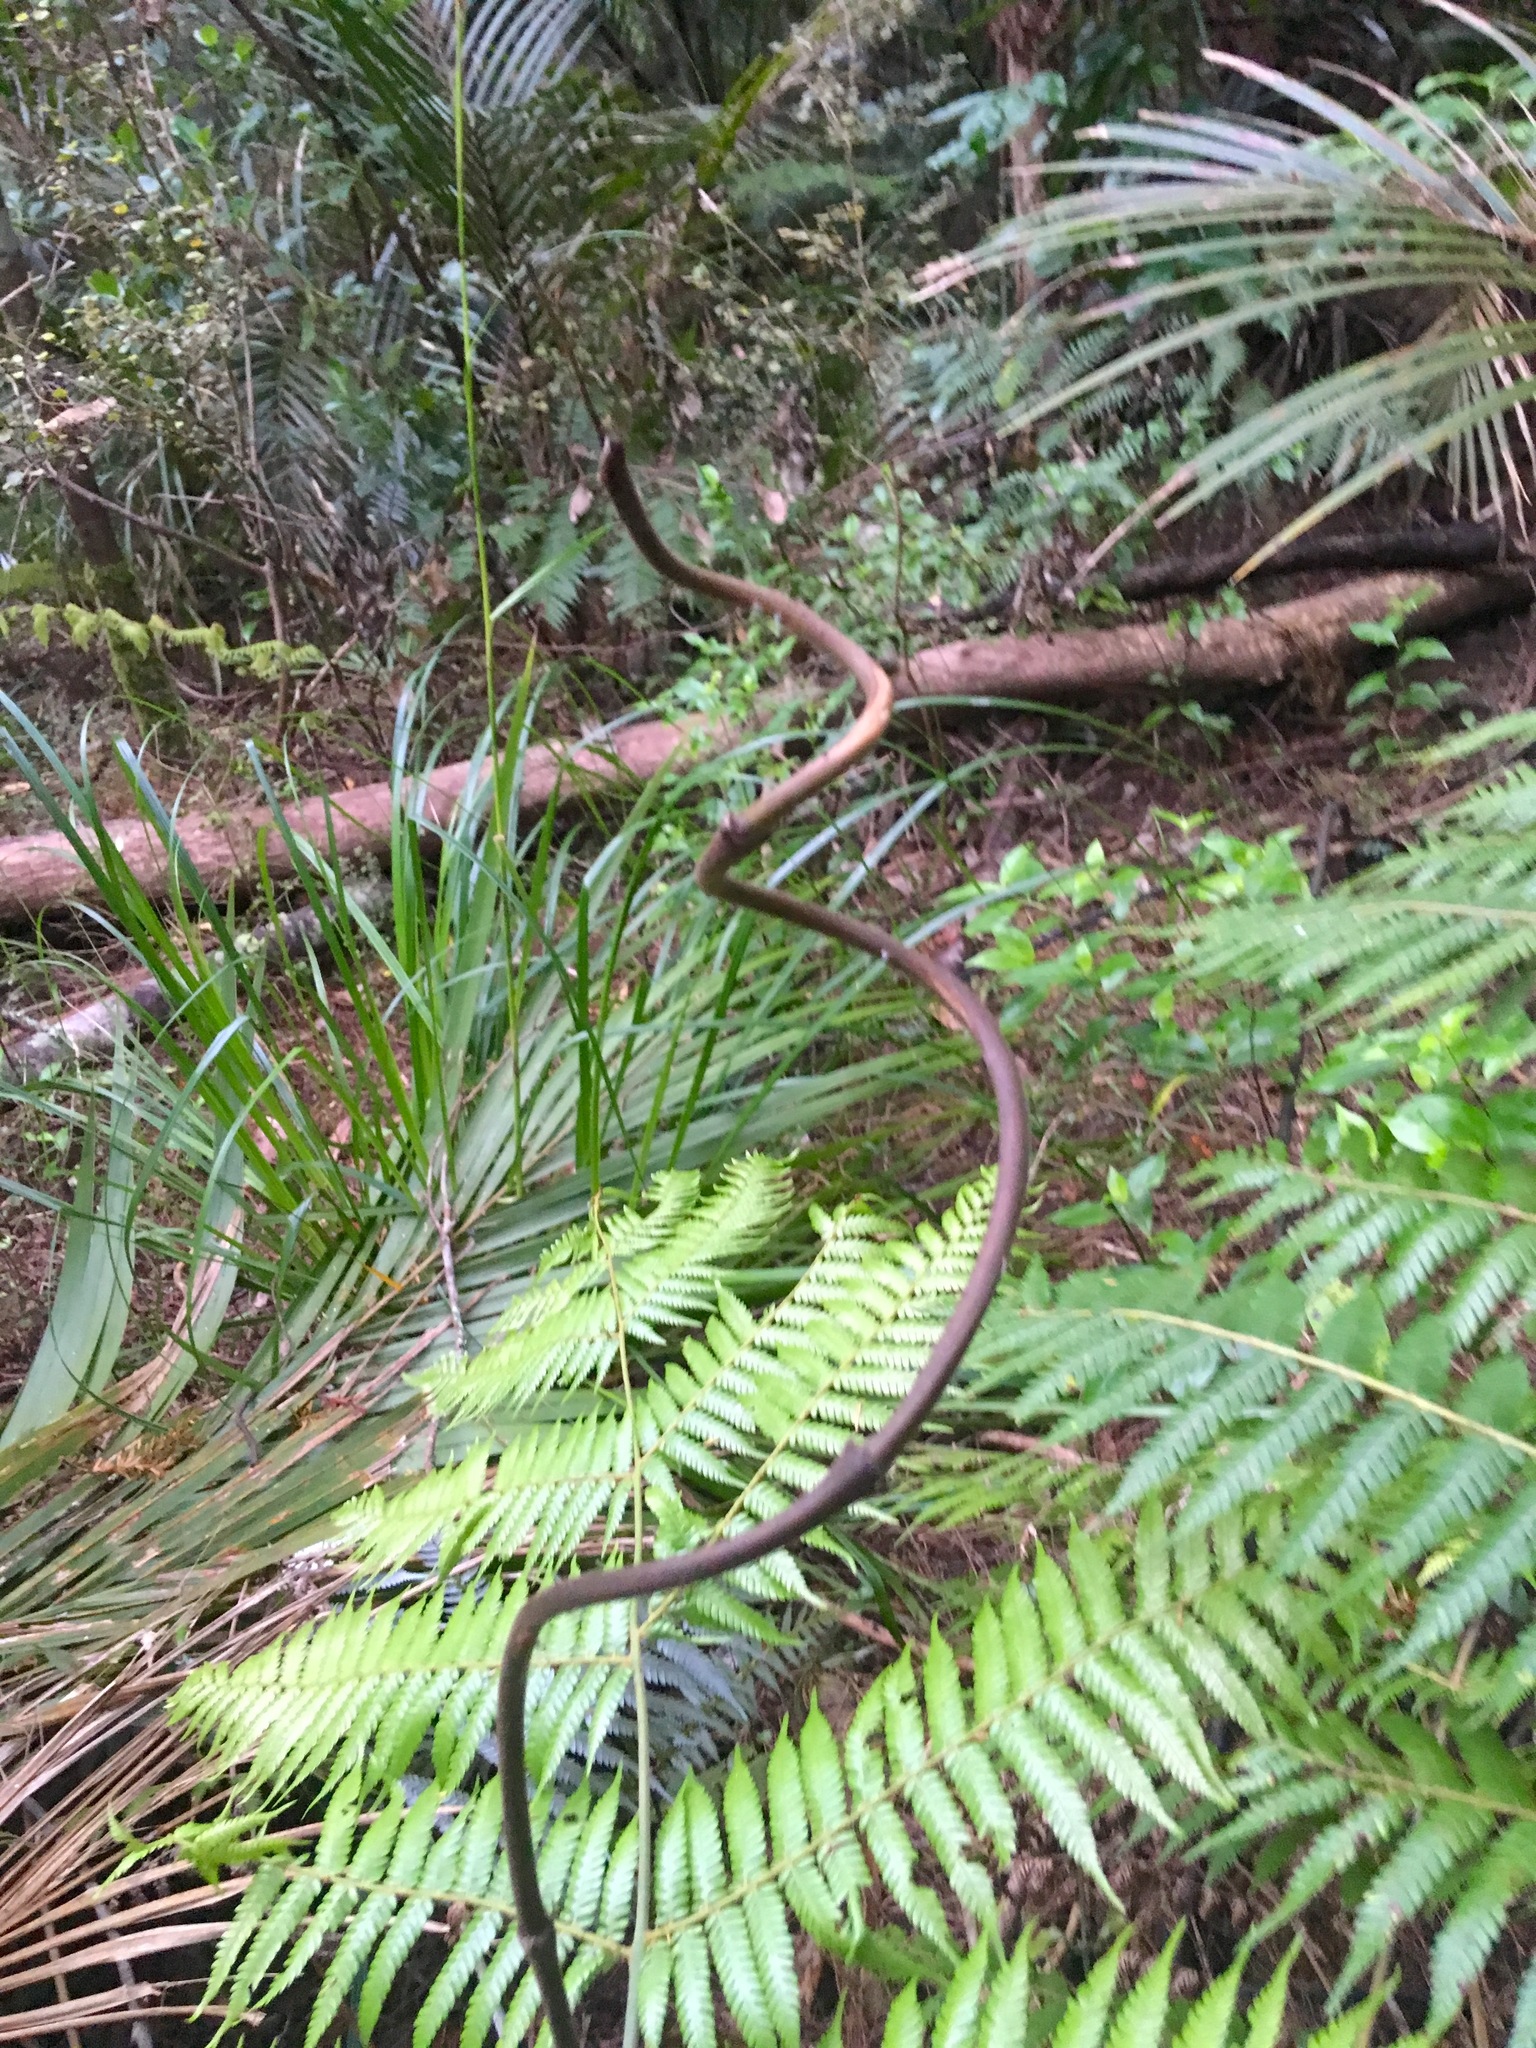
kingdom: Plantae
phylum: Tracheophyta
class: Liliopsida
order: Liliales
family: Ripogonaceae
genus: Ripogonum
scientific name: Ripogonum scandens
